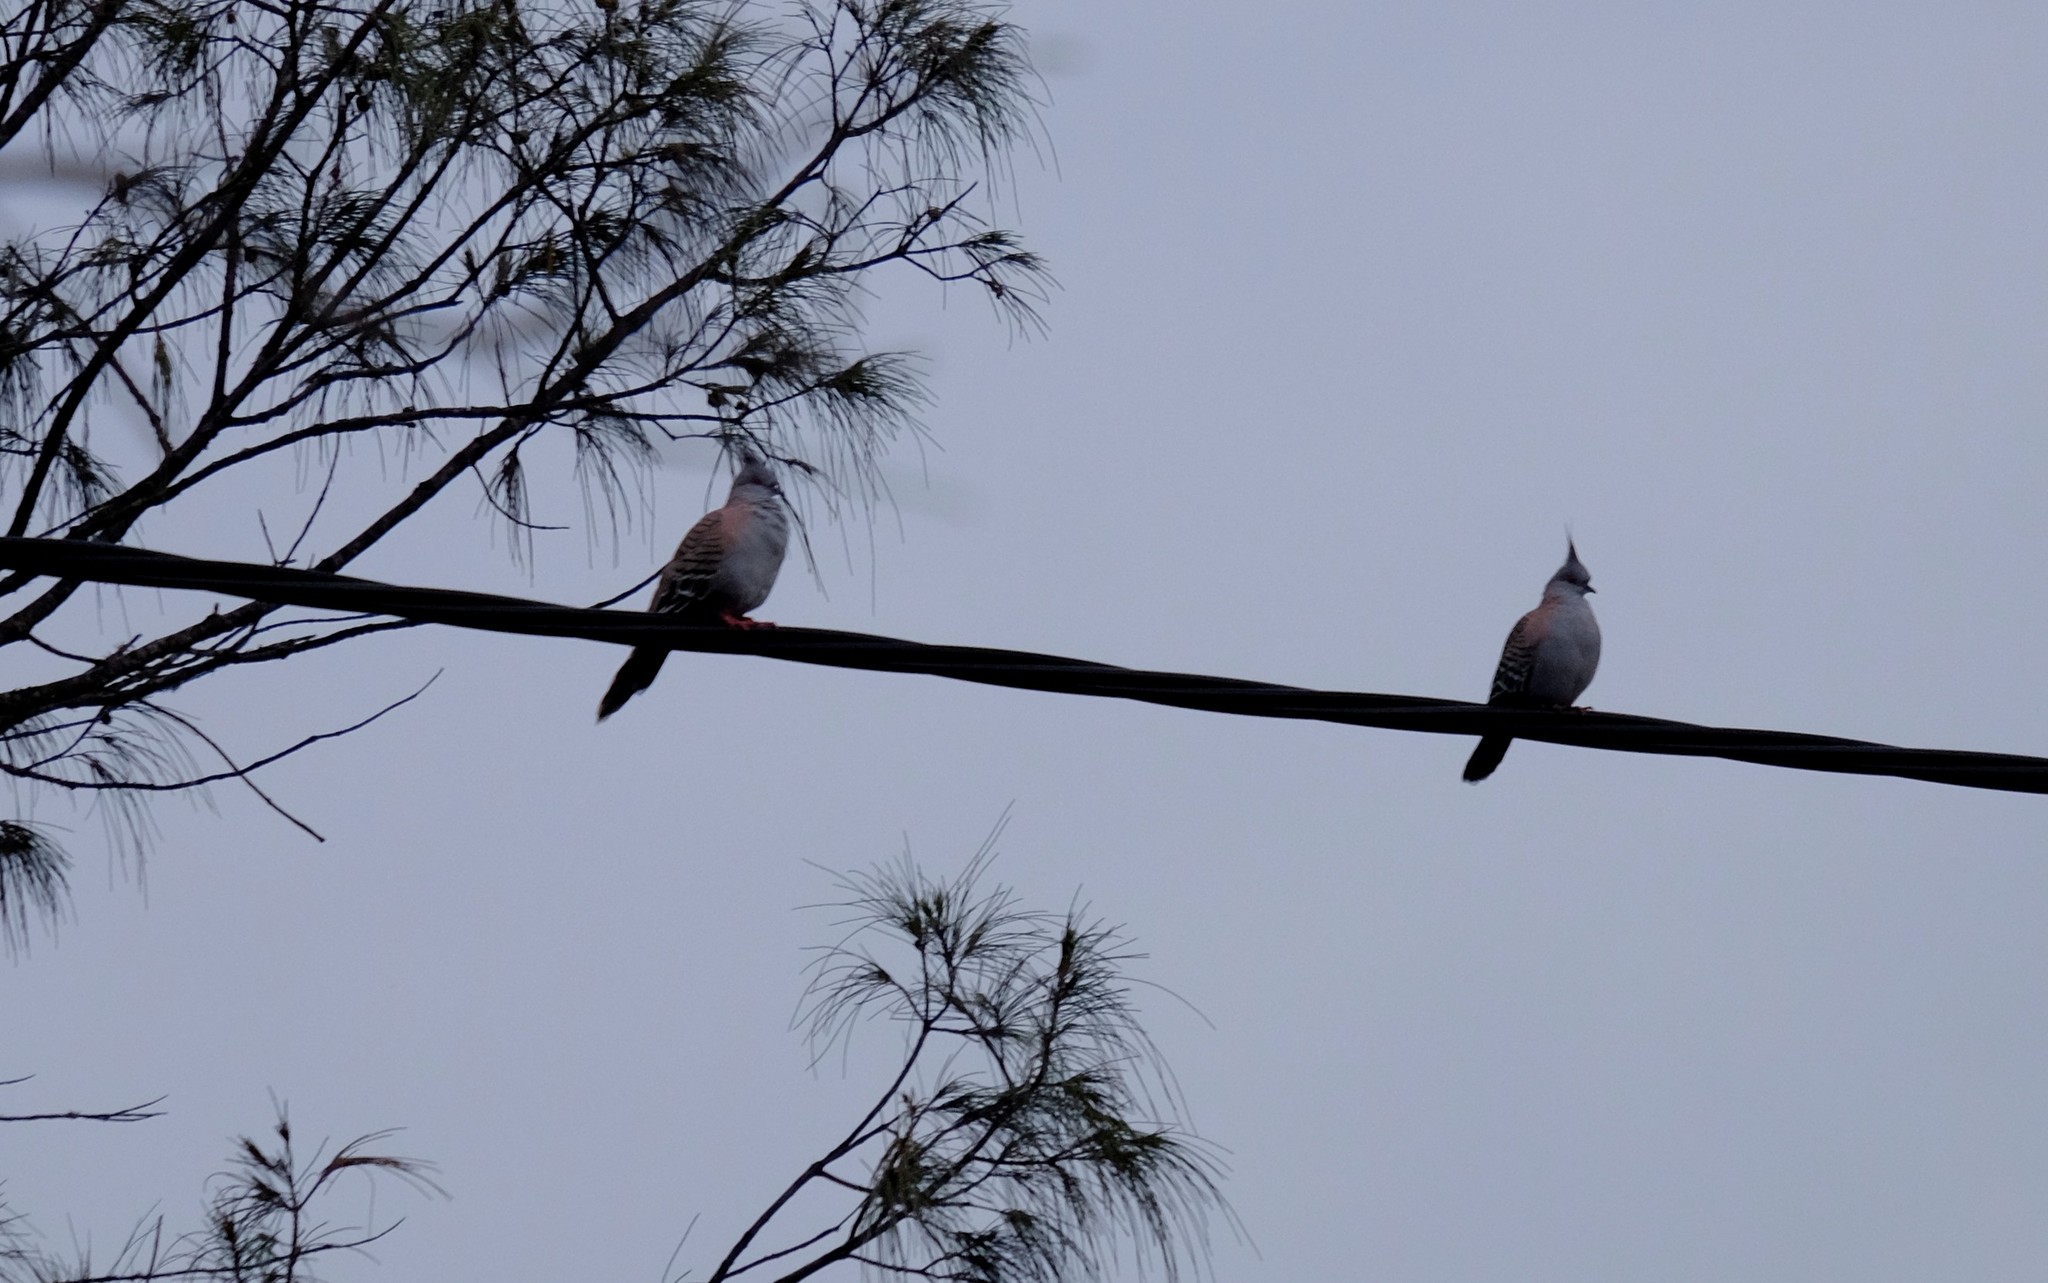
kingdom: Animalia
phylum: Chordata
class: Aves
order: Columbiformes
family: Columbidae
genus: Ocyphaps
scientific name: Ocyphaps lophotes
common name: Crested pigeon
